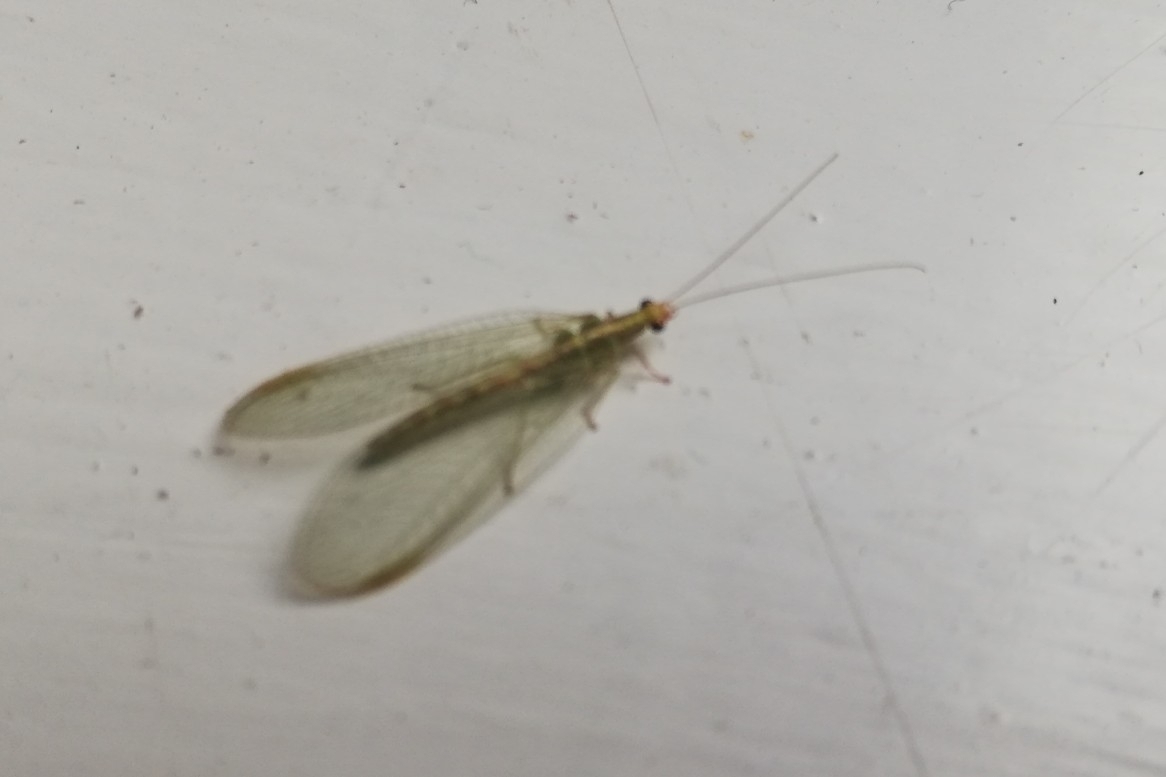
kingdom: Animalia
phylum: Arthropoda
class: Insecta
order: Neuroptera
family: Chrysopidae
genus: Chrysoperla
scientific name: Chrysoperla
